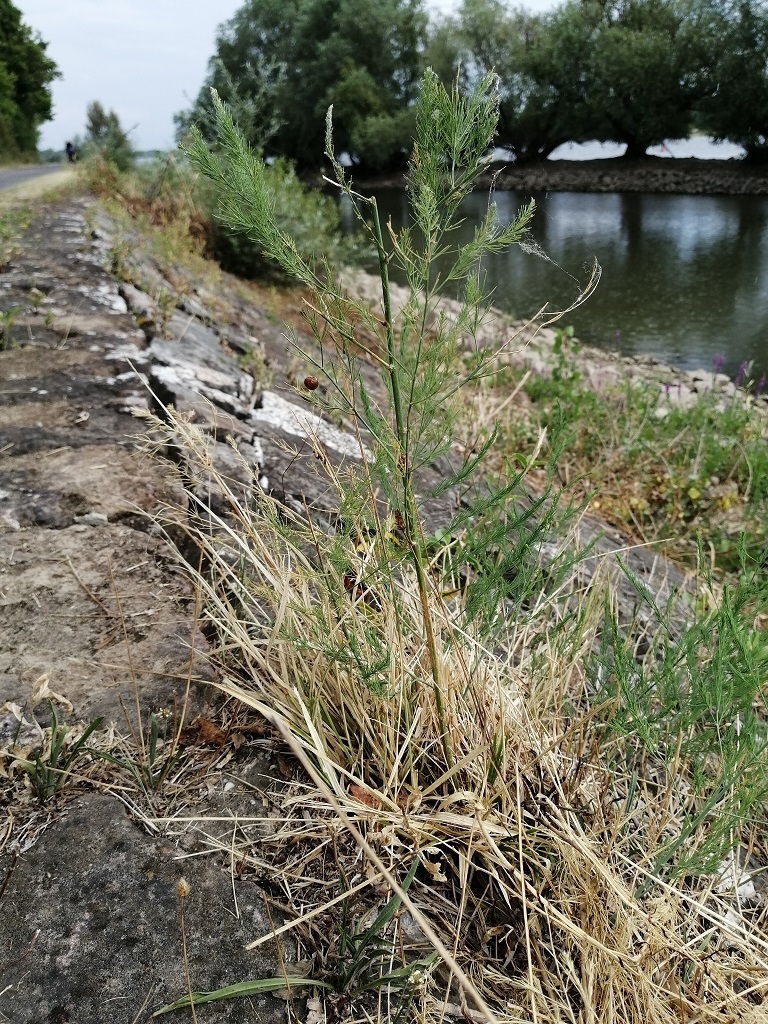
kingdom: Plantae
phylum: Tracheophyta
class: Liliopsida
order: Asparagales
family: Asparagaceae
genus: Asparagus
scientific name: Asparagus officinalis
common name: Garden asparagus
